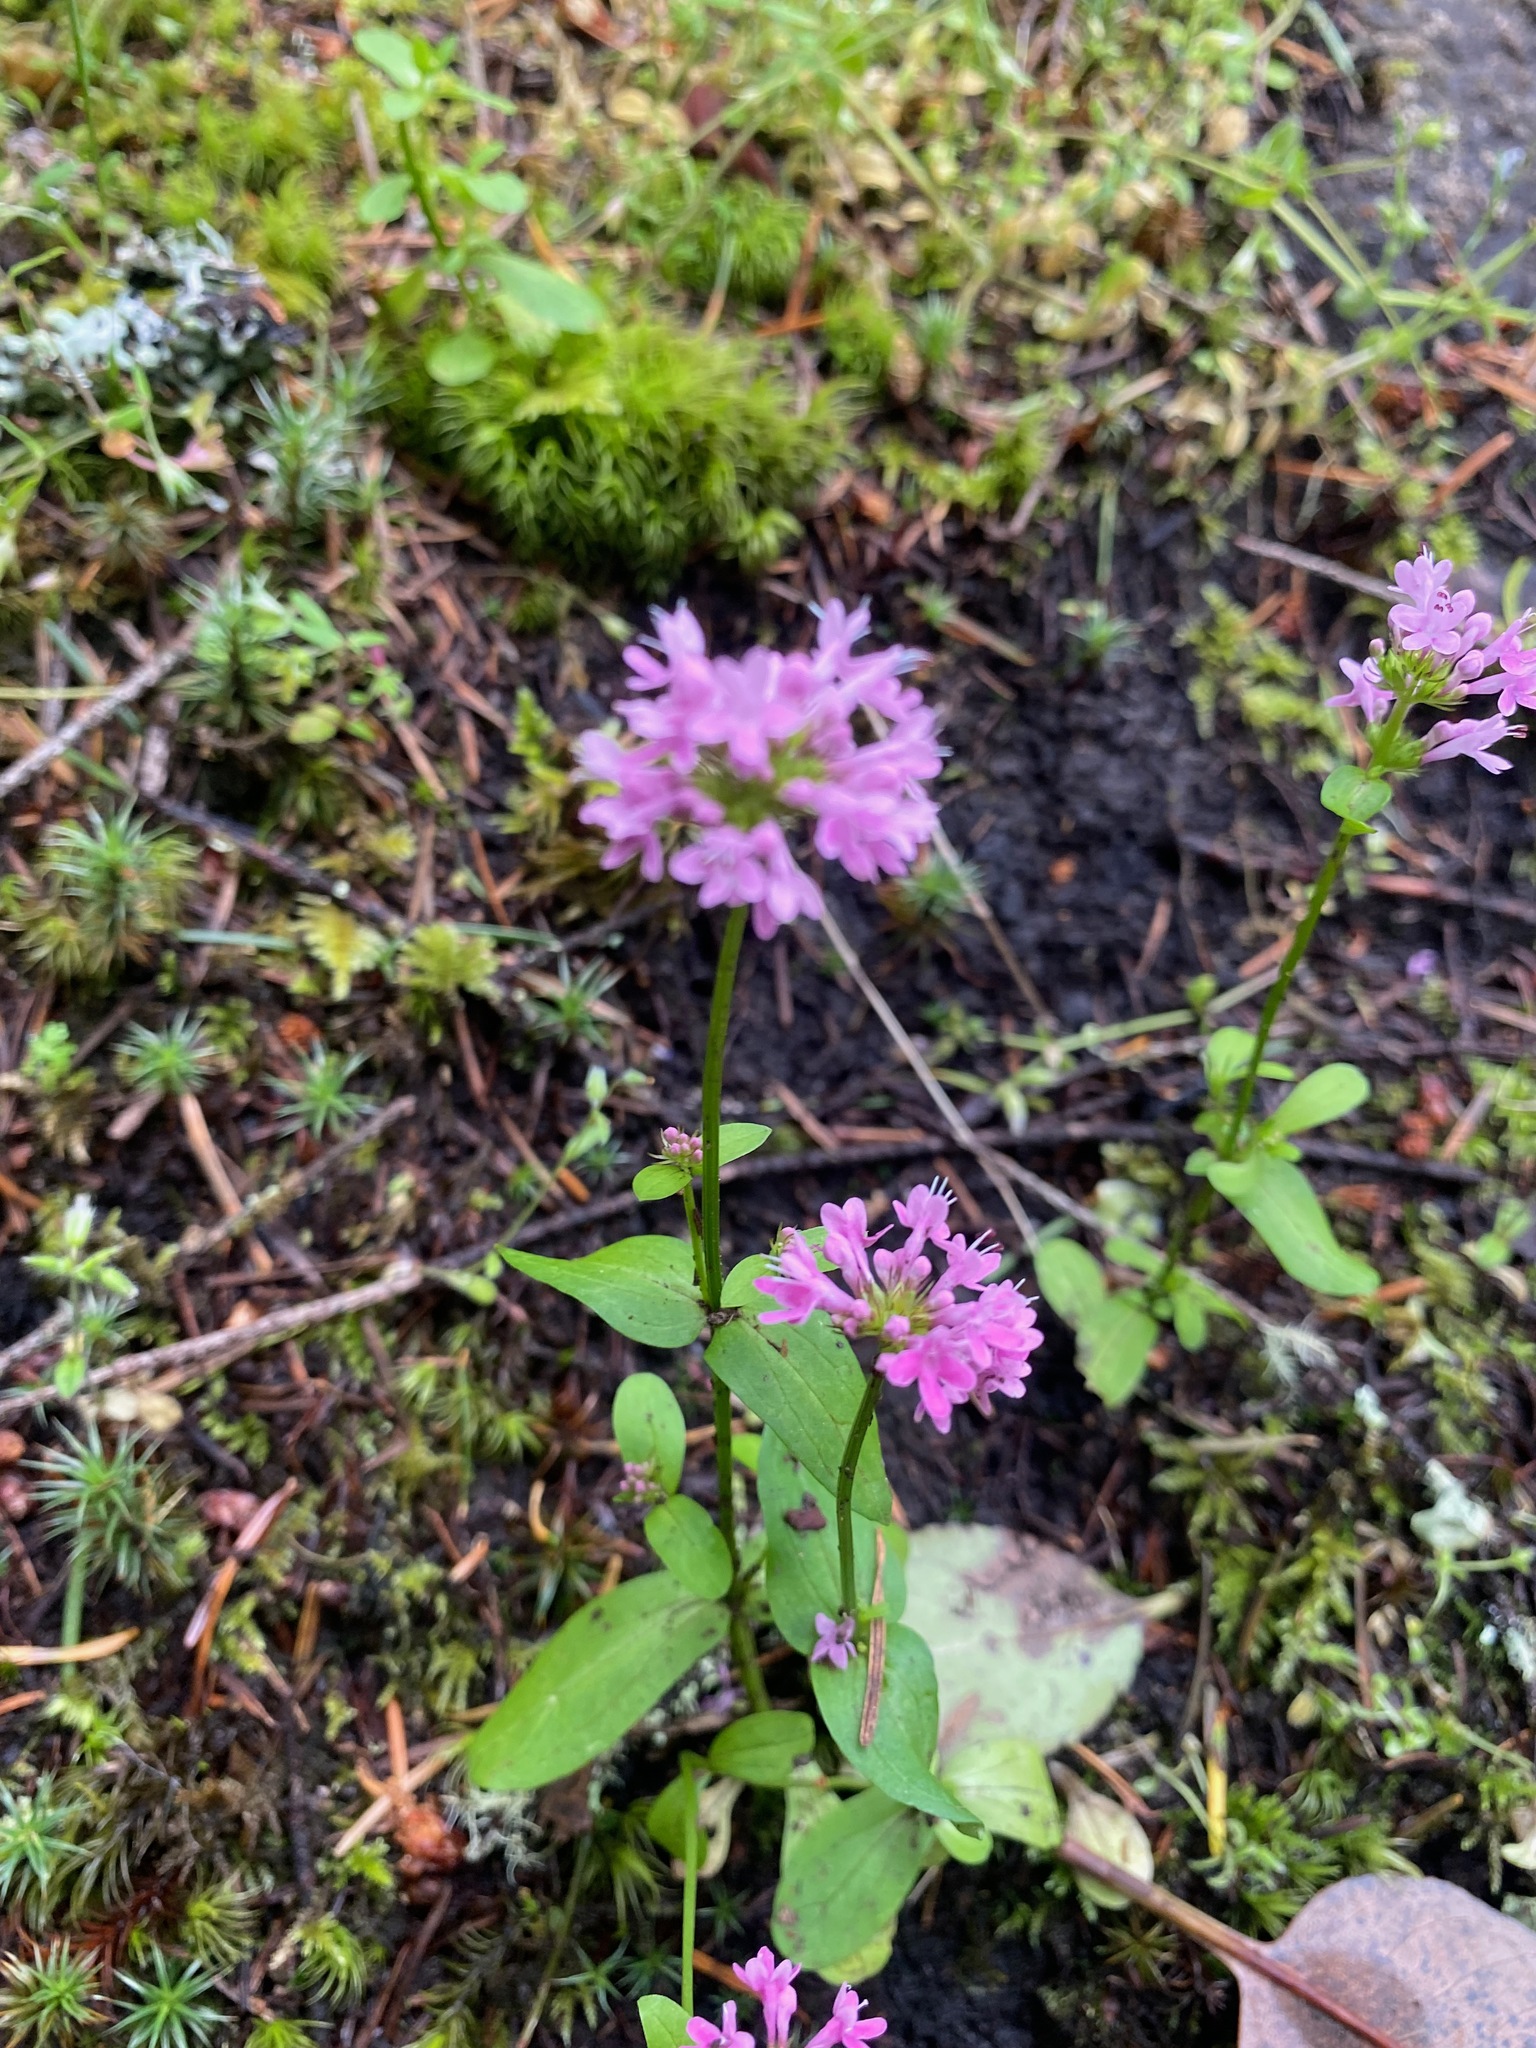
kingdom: Plantae
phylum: Tracheophyta
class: Magnoliopsida
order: Dipsacales
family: Caprifoliaceae
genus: Plectritis
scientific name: Plectritis congesta
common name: Pink plectritis
